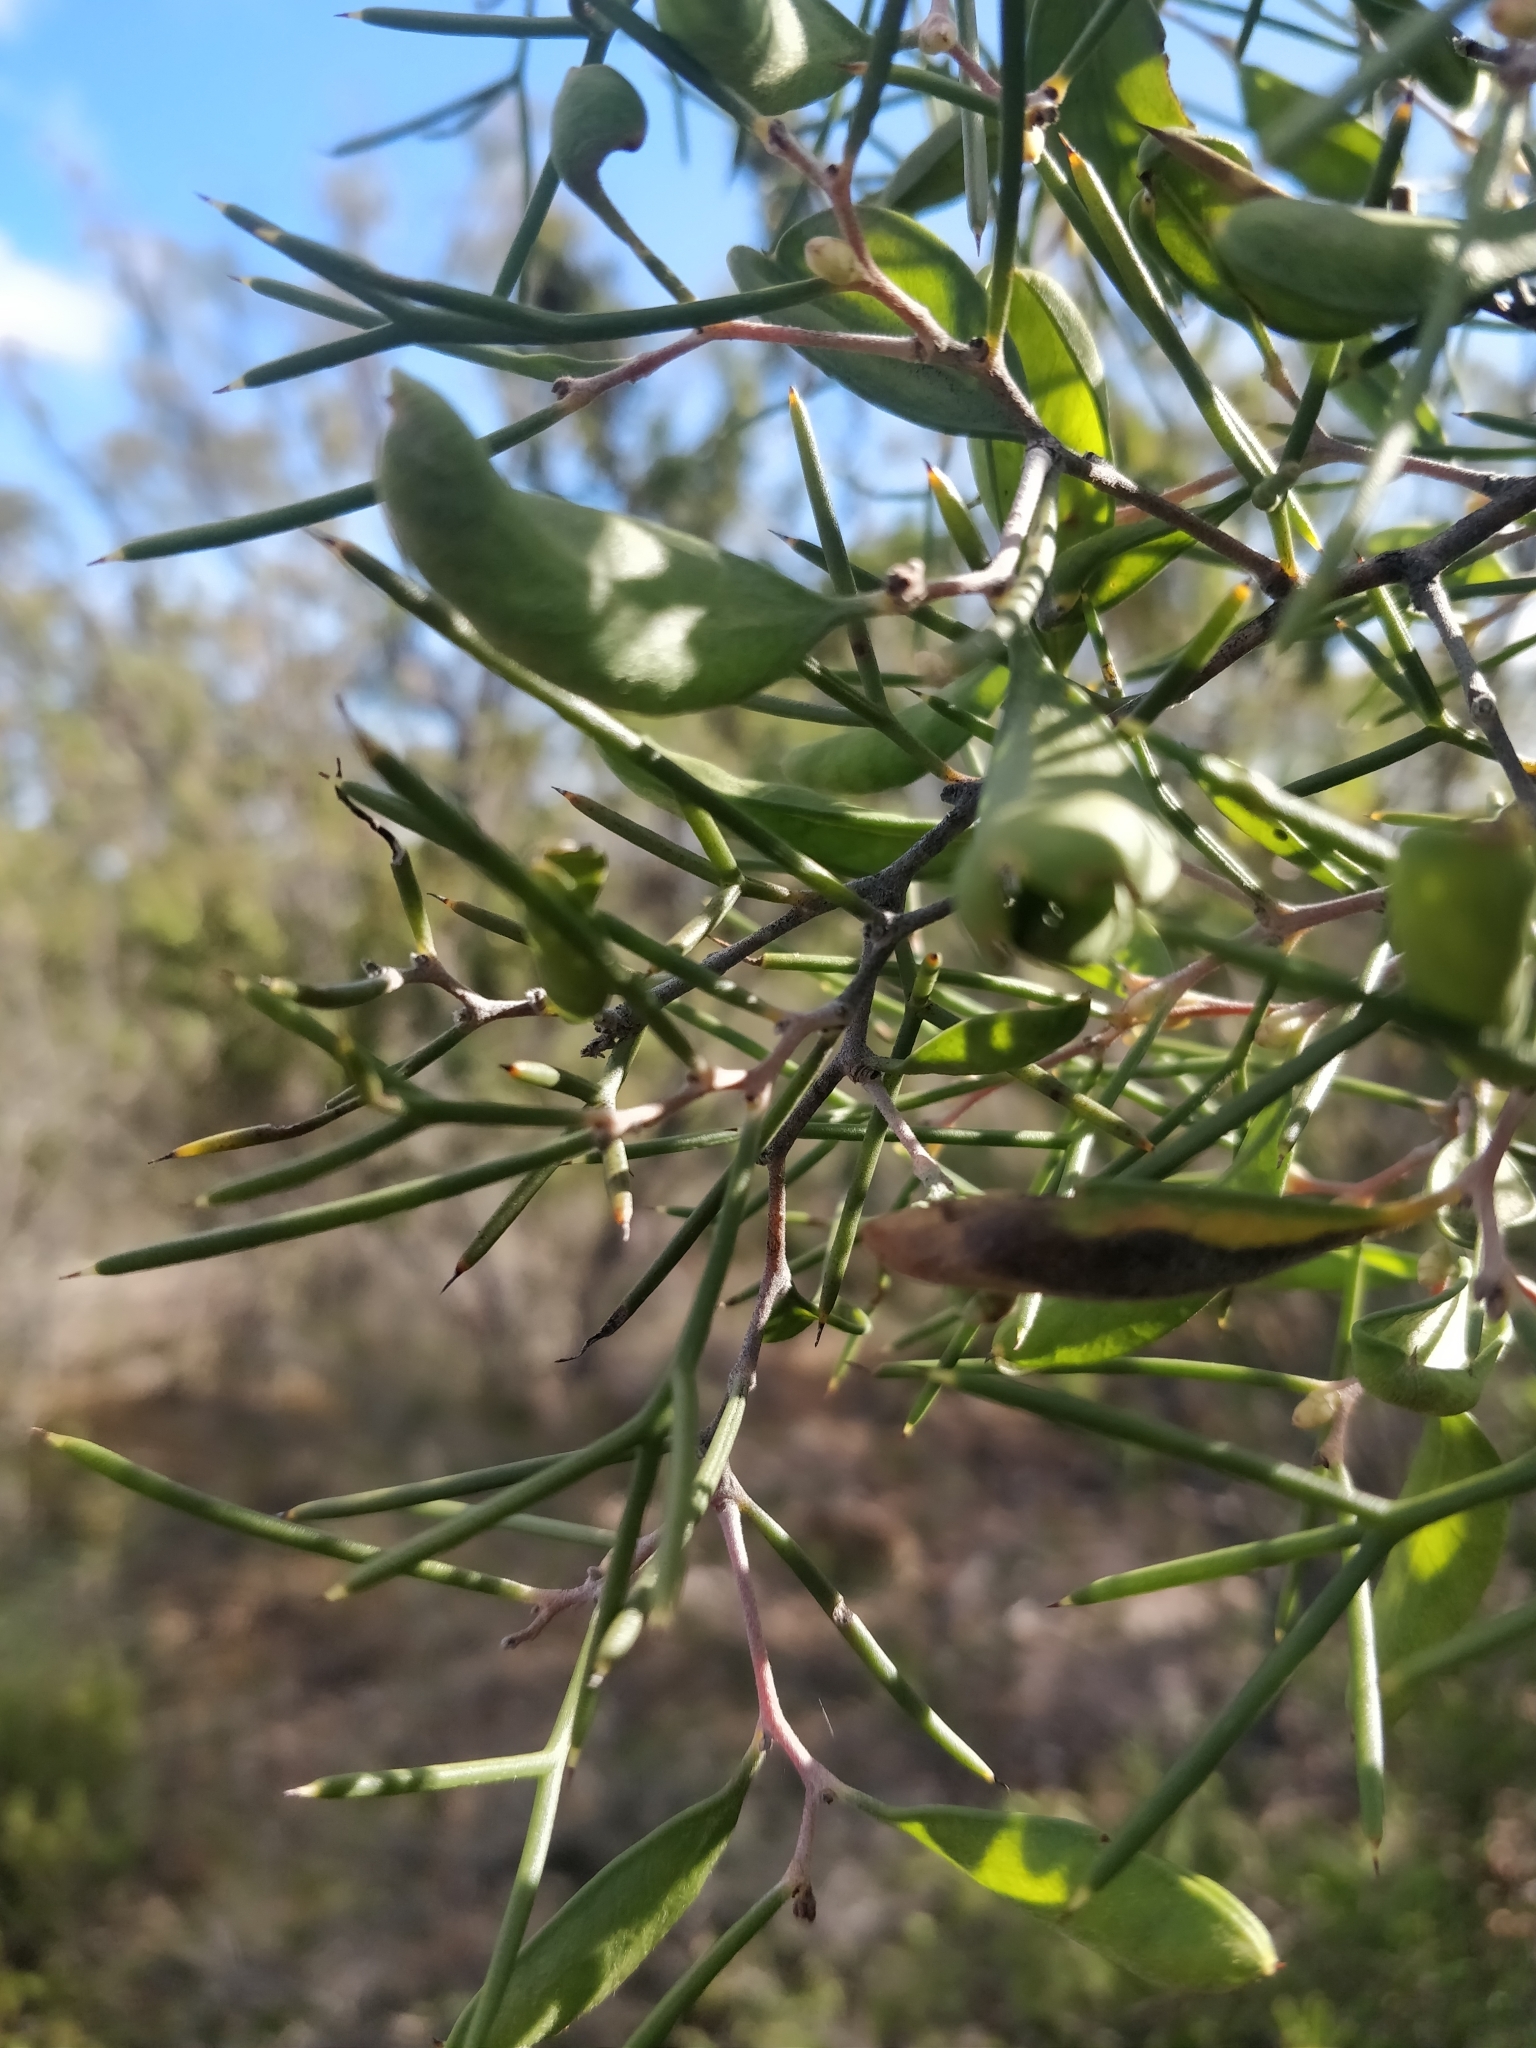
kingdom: Plantae
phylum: Tracheophyta
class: Magnoliopsida
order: Proteales
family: Proteaceae
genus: Hakea
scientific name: Hakea trifurcata
